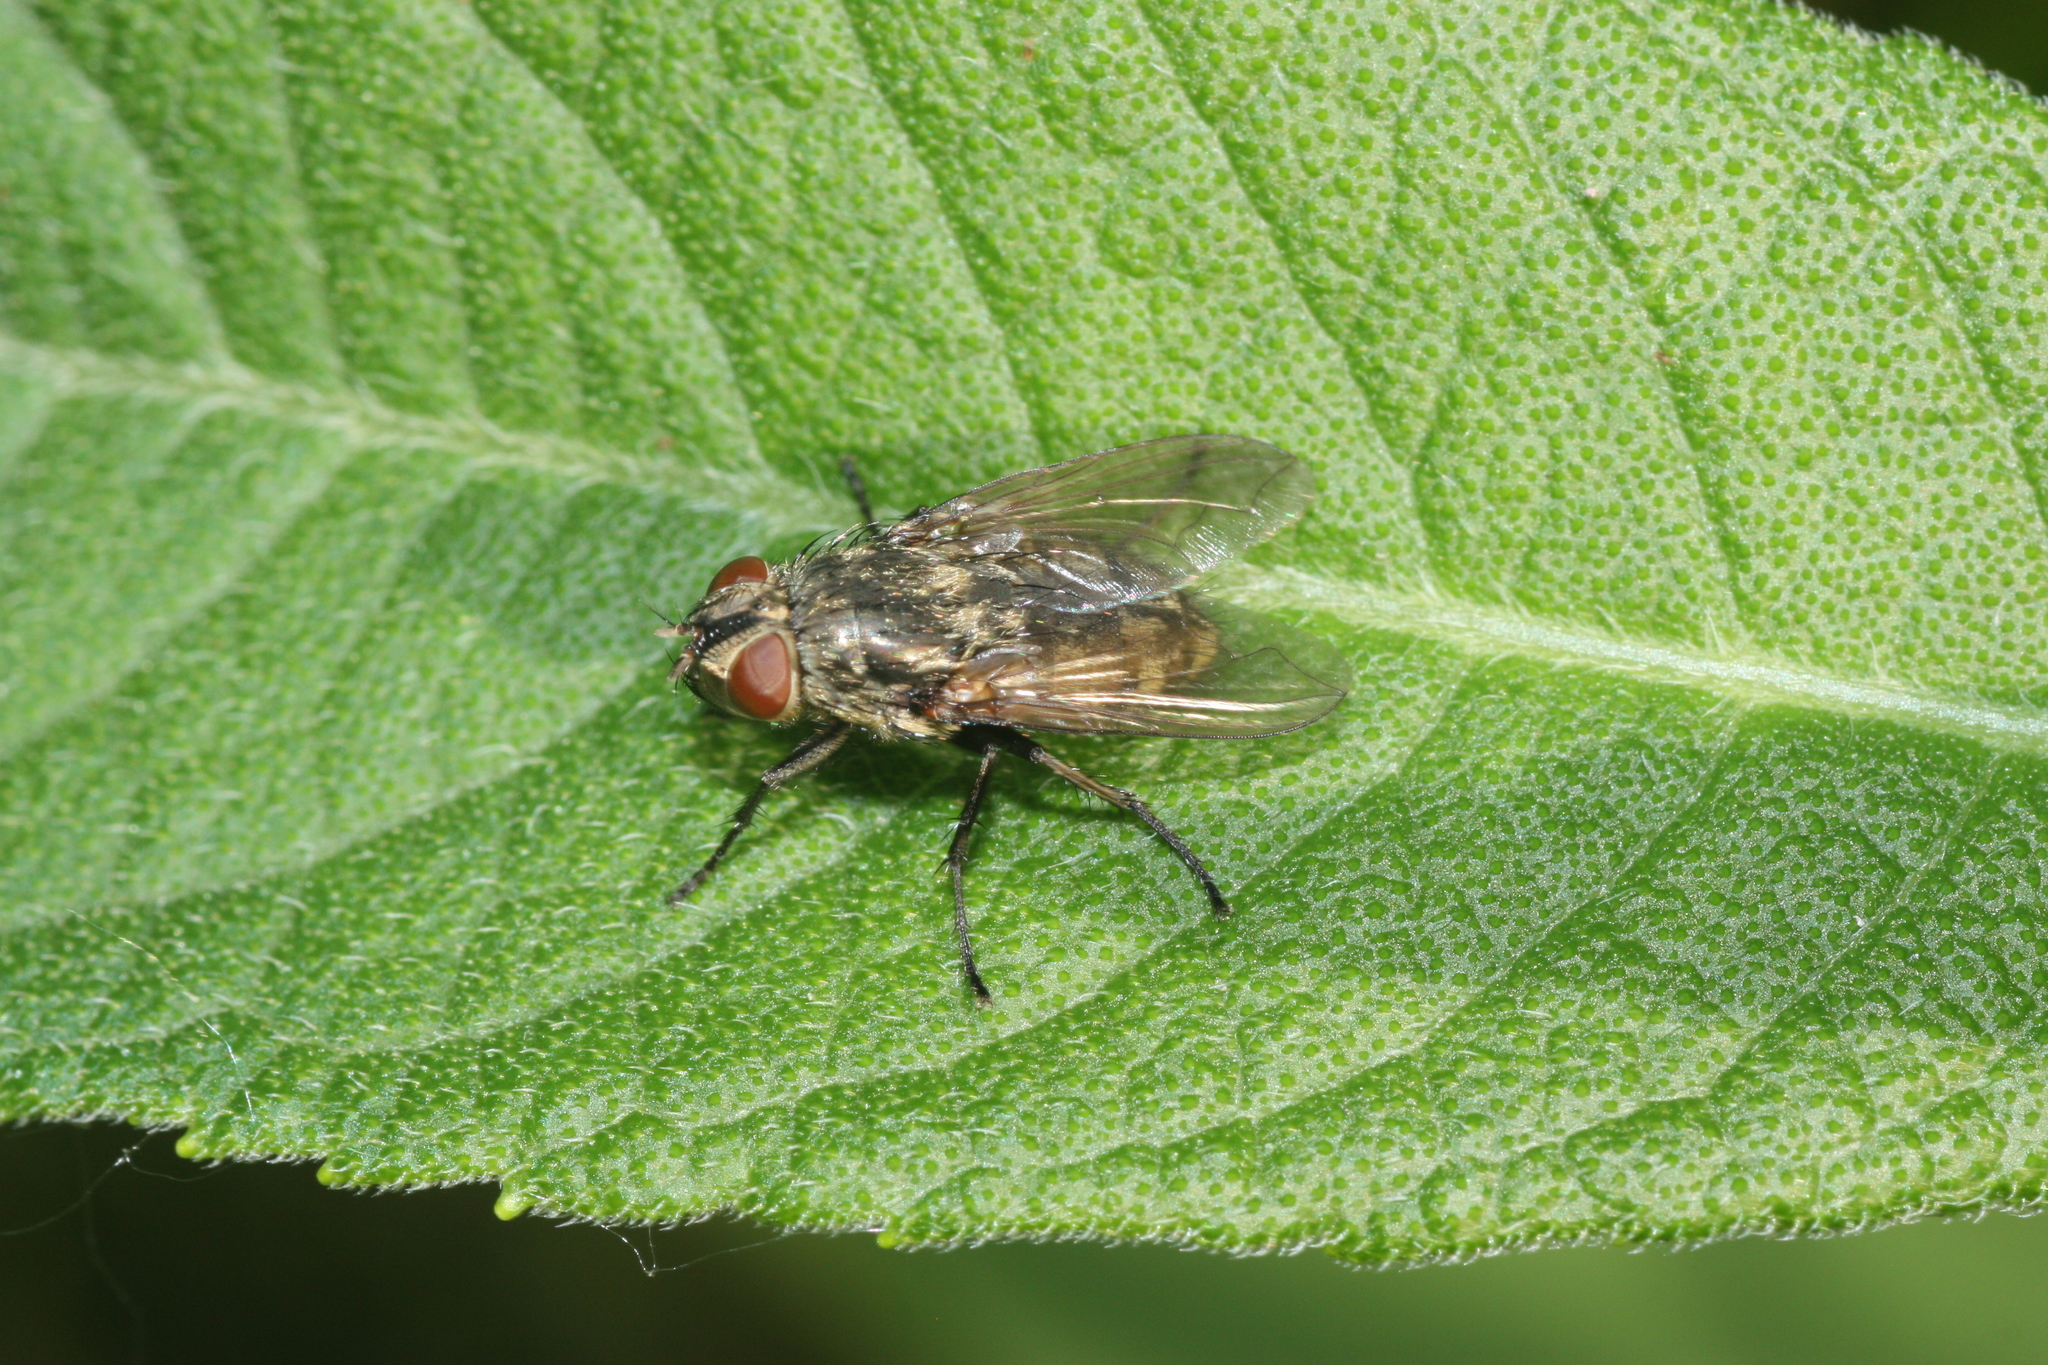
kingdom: Animalia
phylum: Arthropoda
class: Insecta
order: Diptera
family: Polleniidae
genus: Pollenia
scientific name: Pollenia
